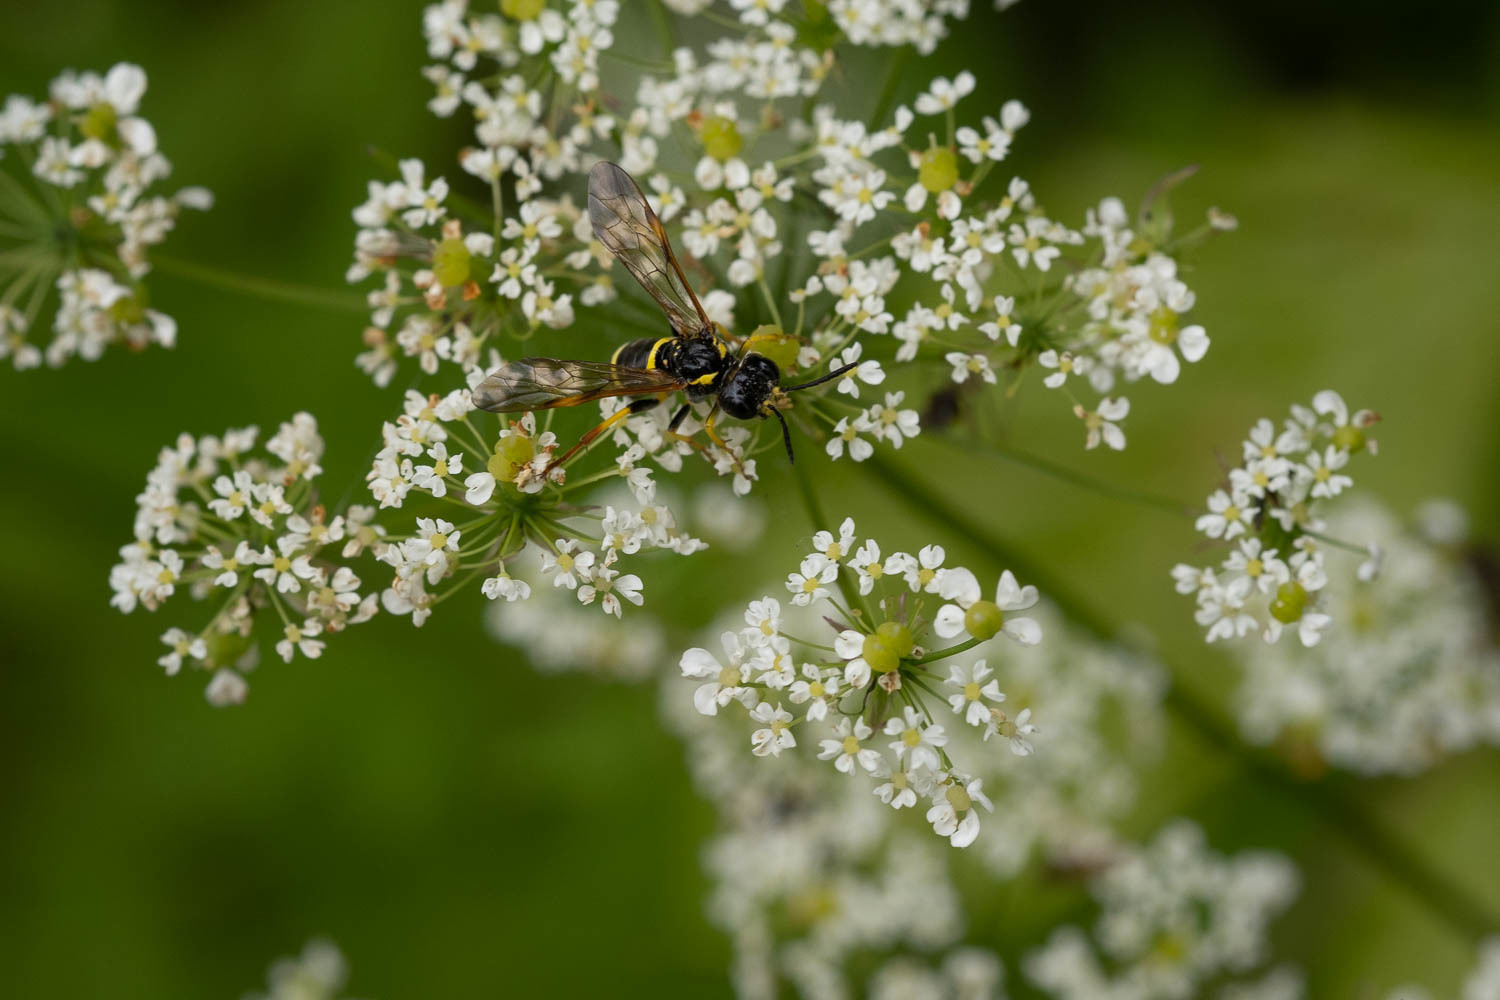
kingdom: Animalia
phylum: Arthropoda
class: Insecta
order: Hymenoptera
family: Tenthredinidae
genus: Tenthredo
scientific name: Tenthredo amoena
